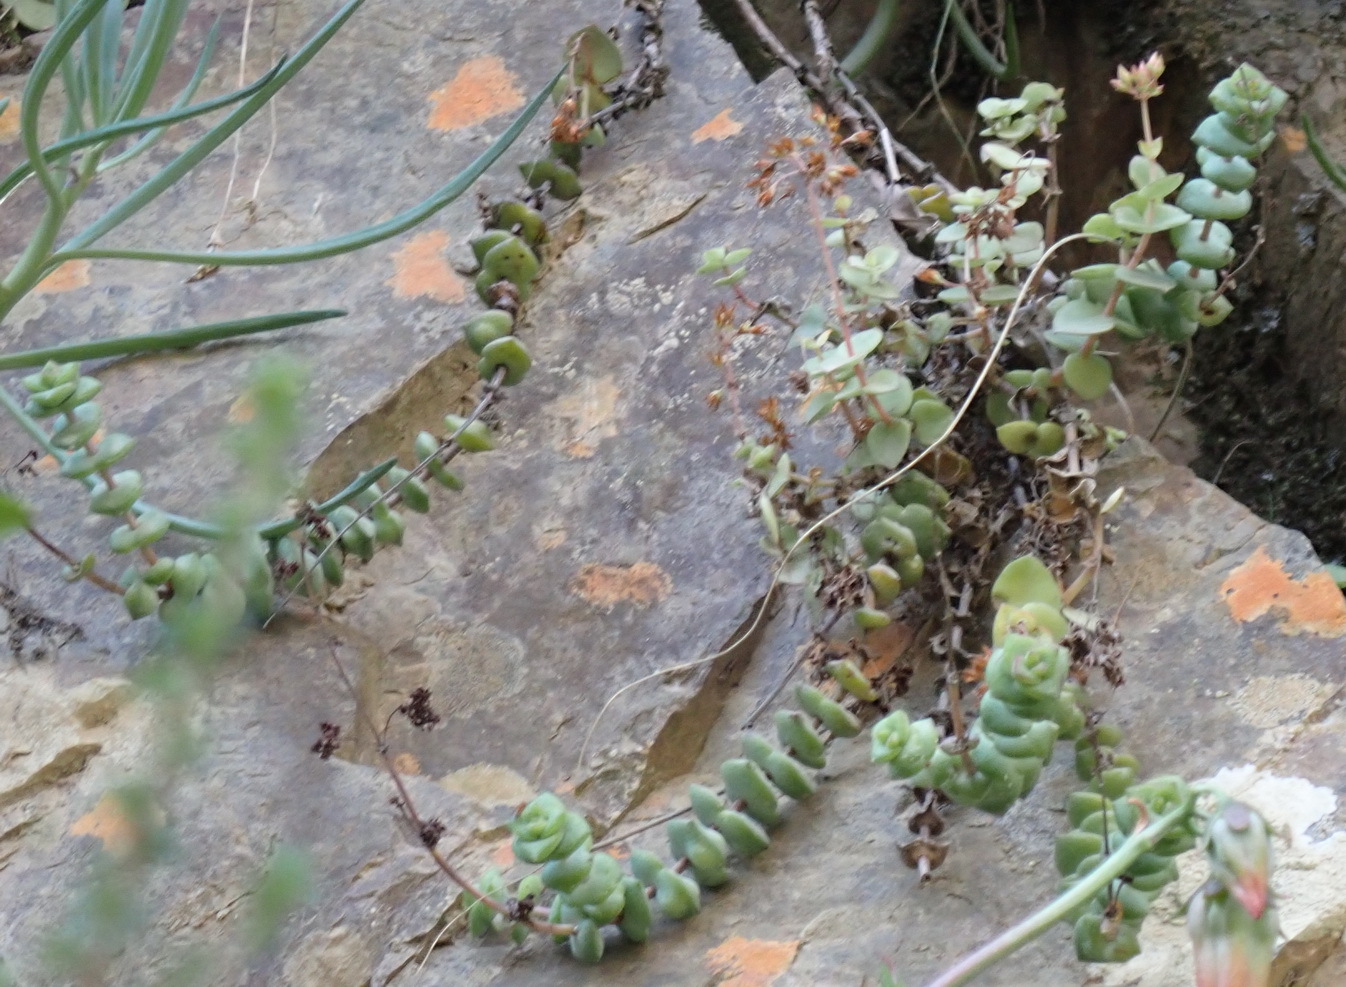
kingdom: Plantae
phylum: Tracheophyta
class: Magnoliopsida
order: Saxifragales
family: Crassulaceae
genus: Crassula
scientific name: Crassula perforata
